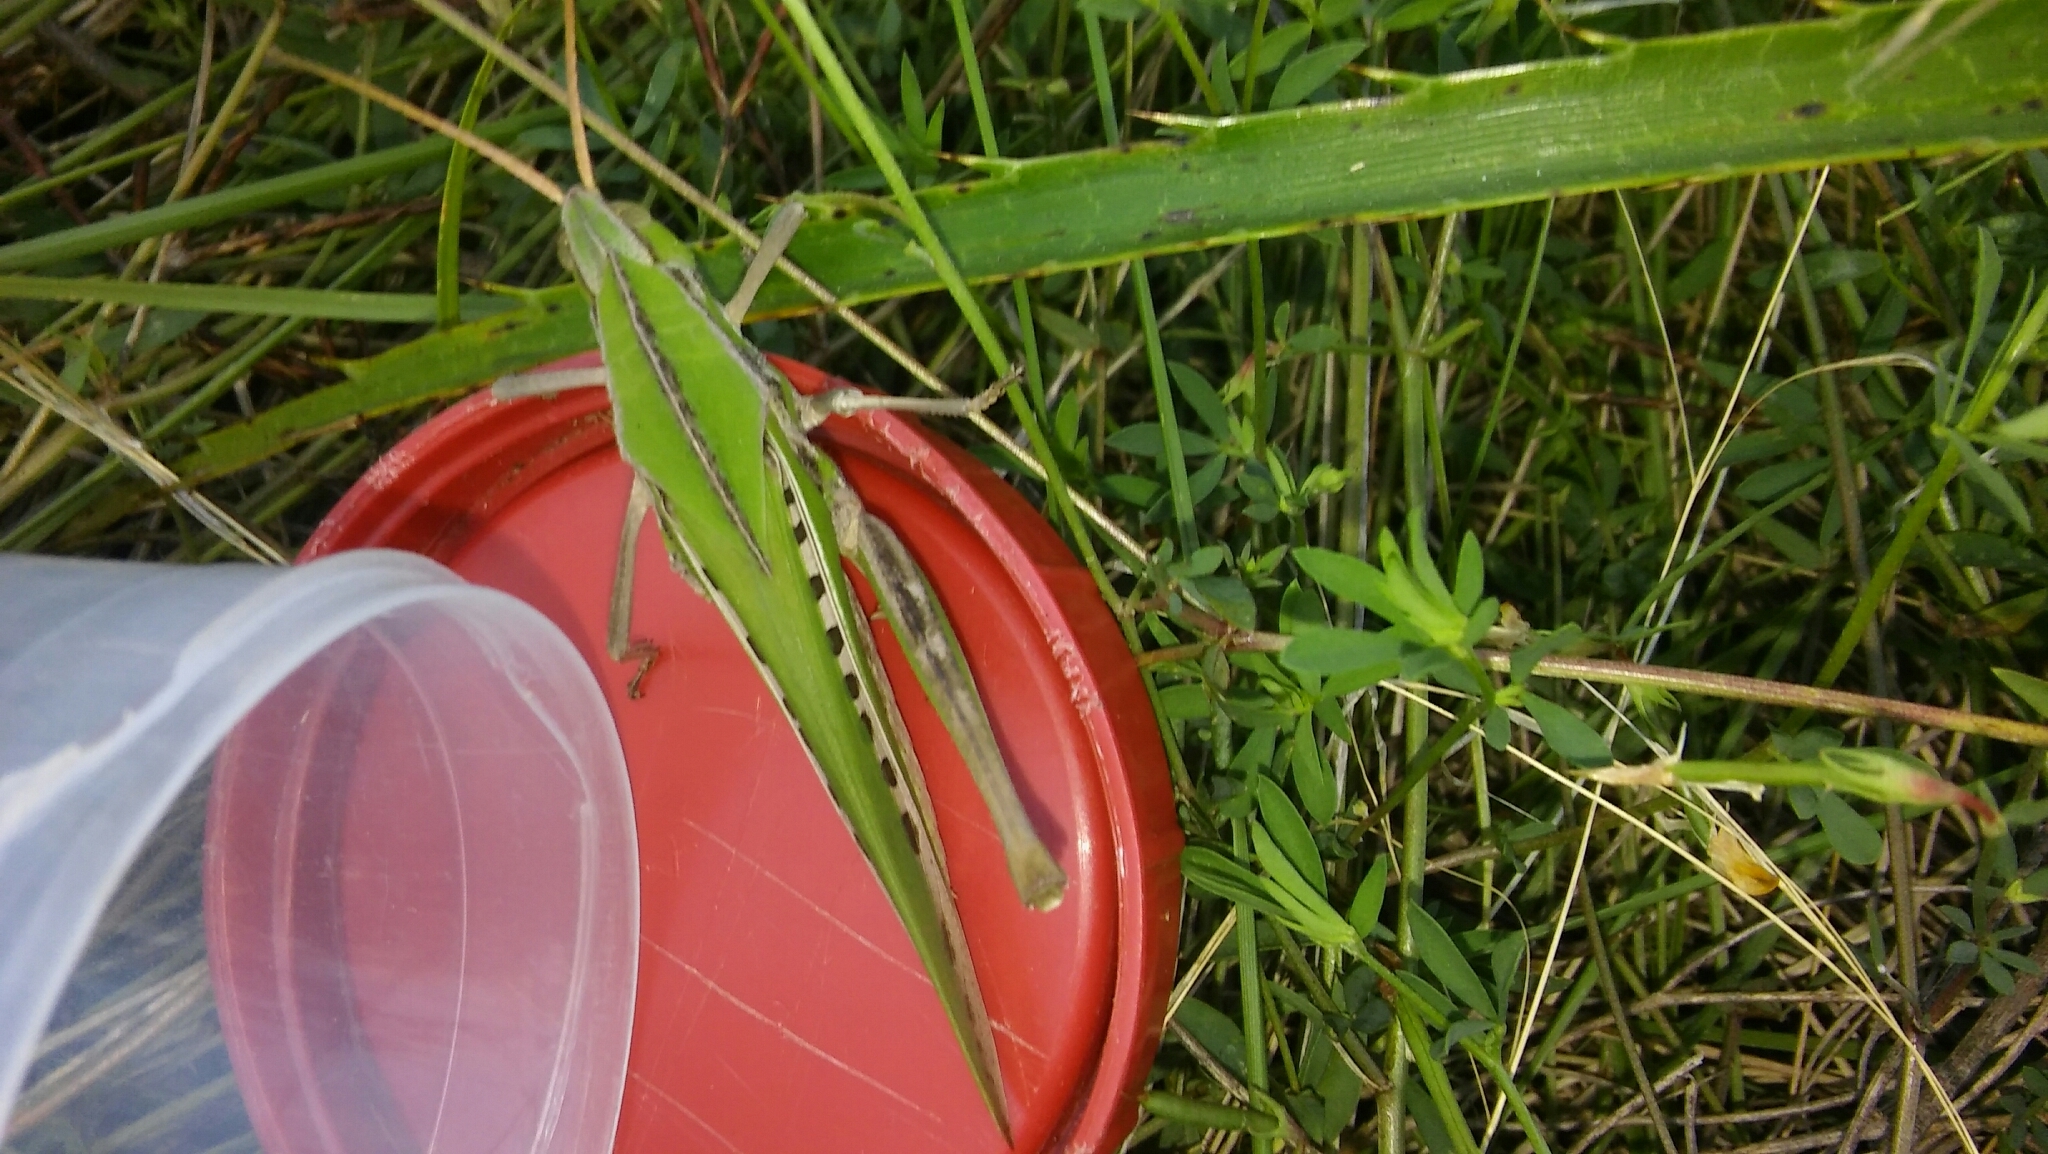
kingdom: Animalia
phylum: Arthropoda
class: Insecta
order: Orthoptera
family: Romaleidae
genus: Xyleus
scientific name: Xyleus laevipes
